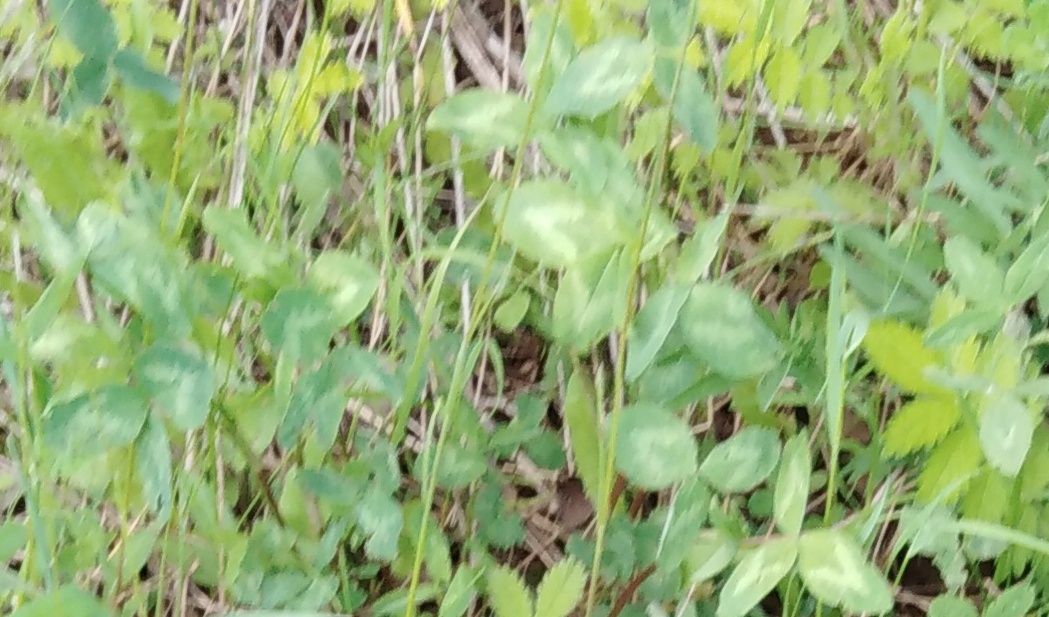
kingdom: Plantae
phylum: Tracheophyta
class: Magnoliopsida
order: Fabales
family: Fabaceae
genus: Trifolium
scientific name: Trifolium pratense
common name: Red clover
